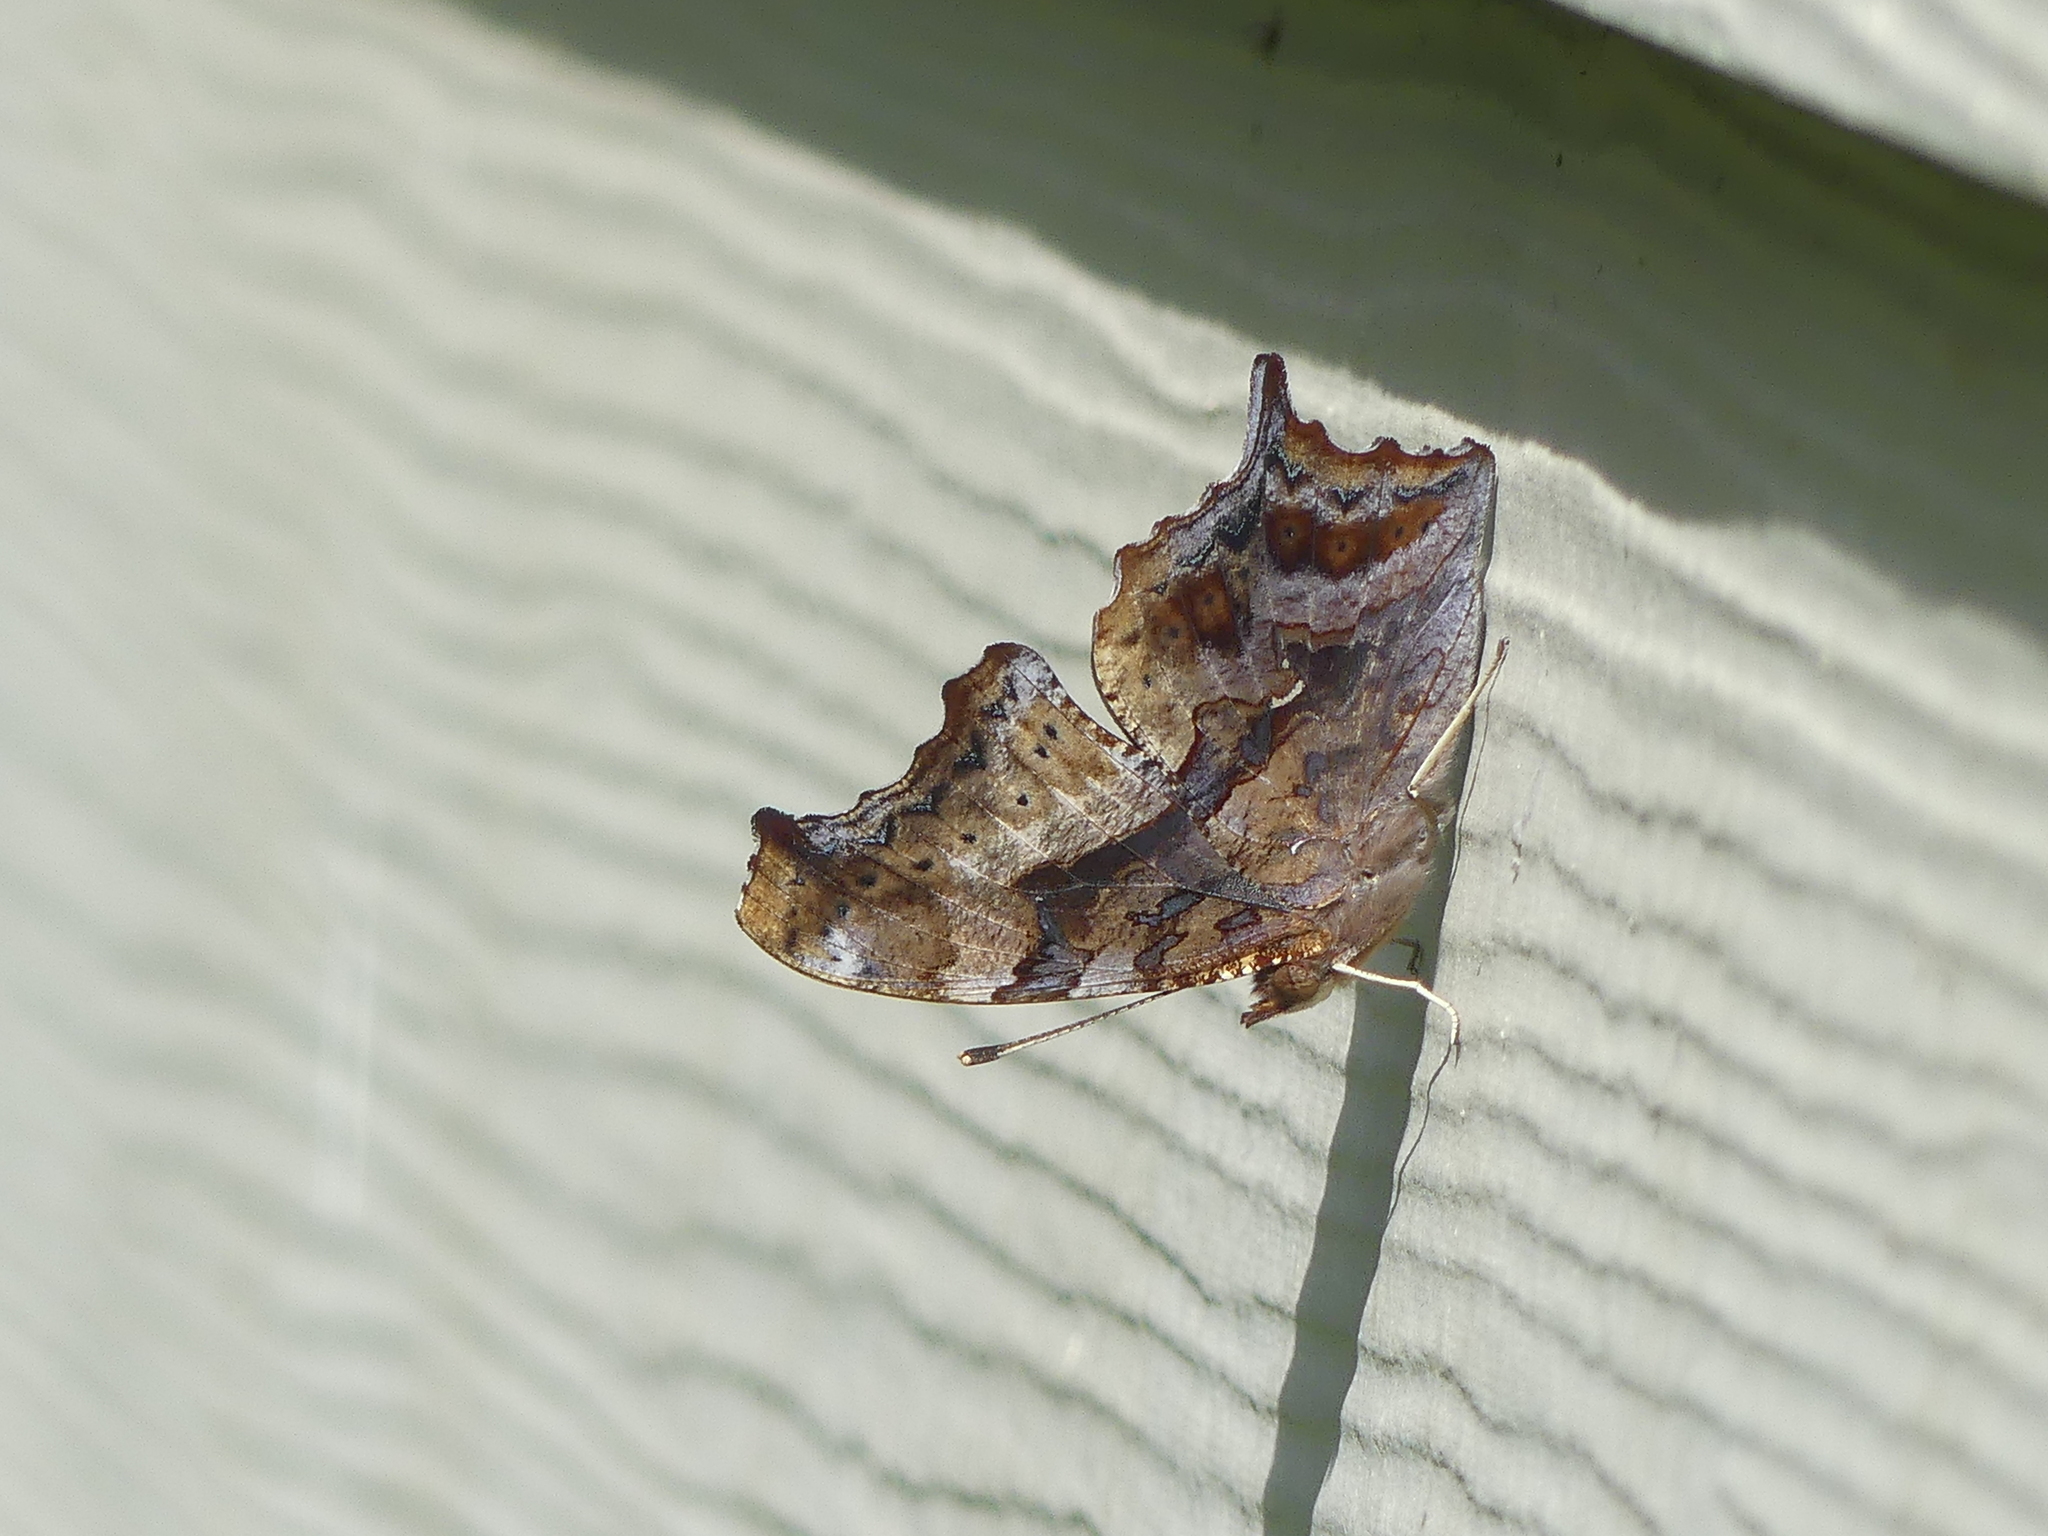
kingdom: Animalia
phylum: Arthropoda
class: Insecta
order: Lepidoptera
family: Nymphalidae
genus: Polygonia
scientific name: Polygonia interrogationis
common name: Question mark
